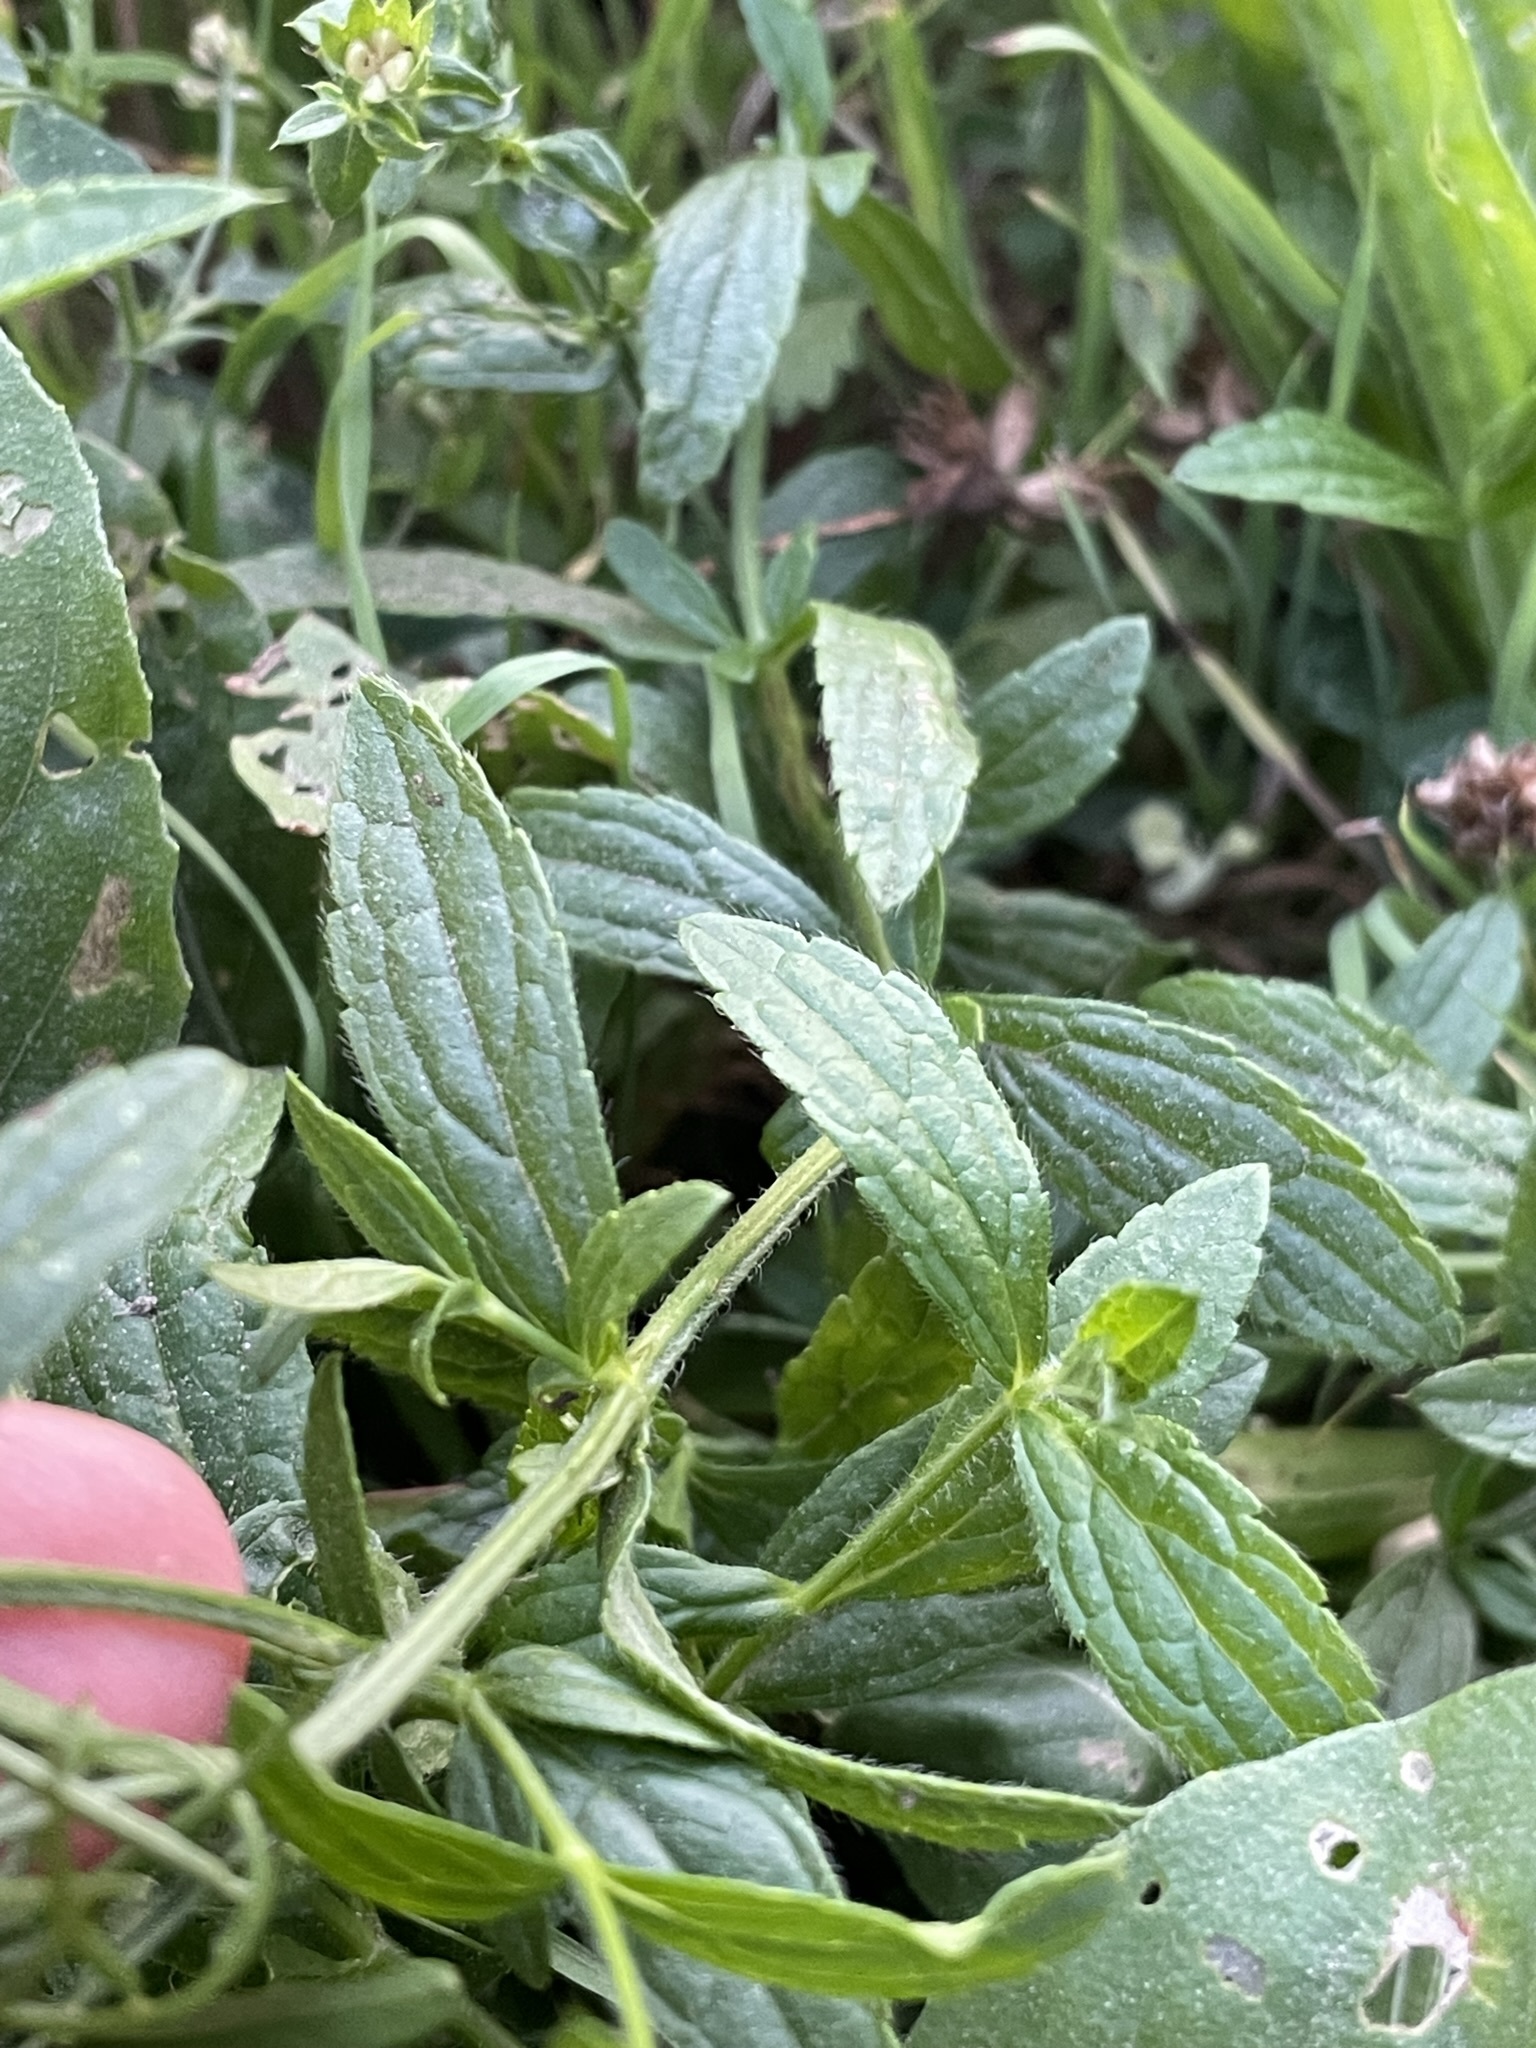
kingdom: Plantae
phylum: Tracheophyta
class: Magnoliopsida
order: Lamiales
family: Lamiaceae
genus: Stachys
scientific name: Stachys recta
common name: Perennial yellow-woundwort
